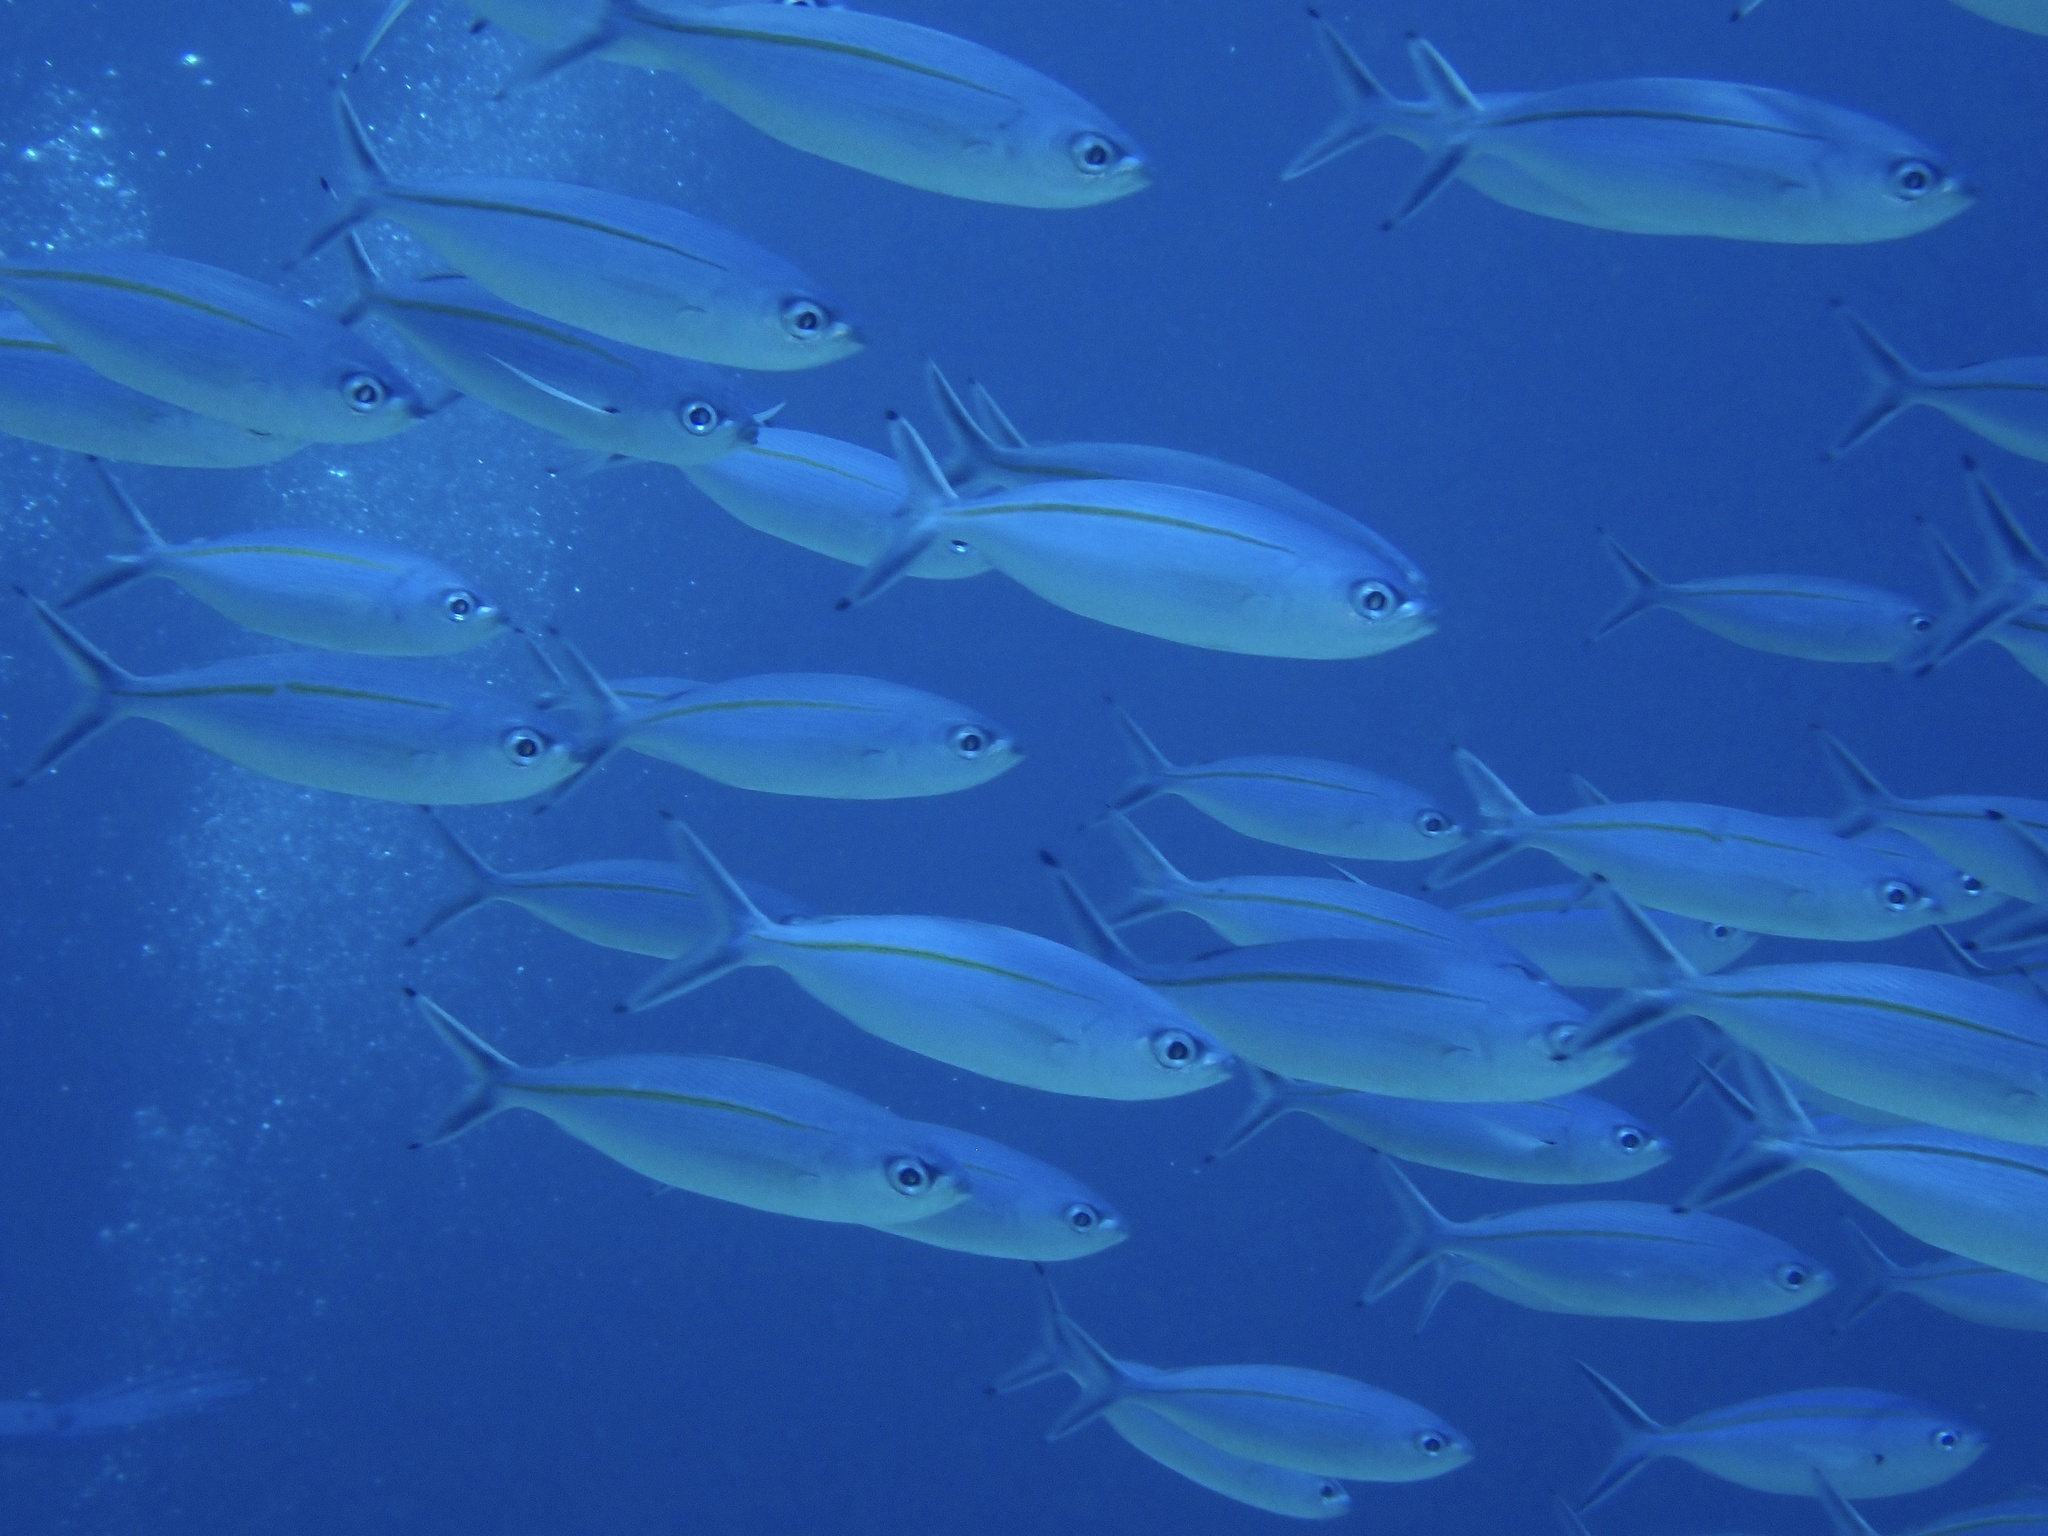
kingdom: Animalia
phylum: Chordata
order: Perciformes
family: Caesionidae
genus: Pterocaesio
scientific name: Pterocaesio tessellata
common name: One-stripe fusilier
